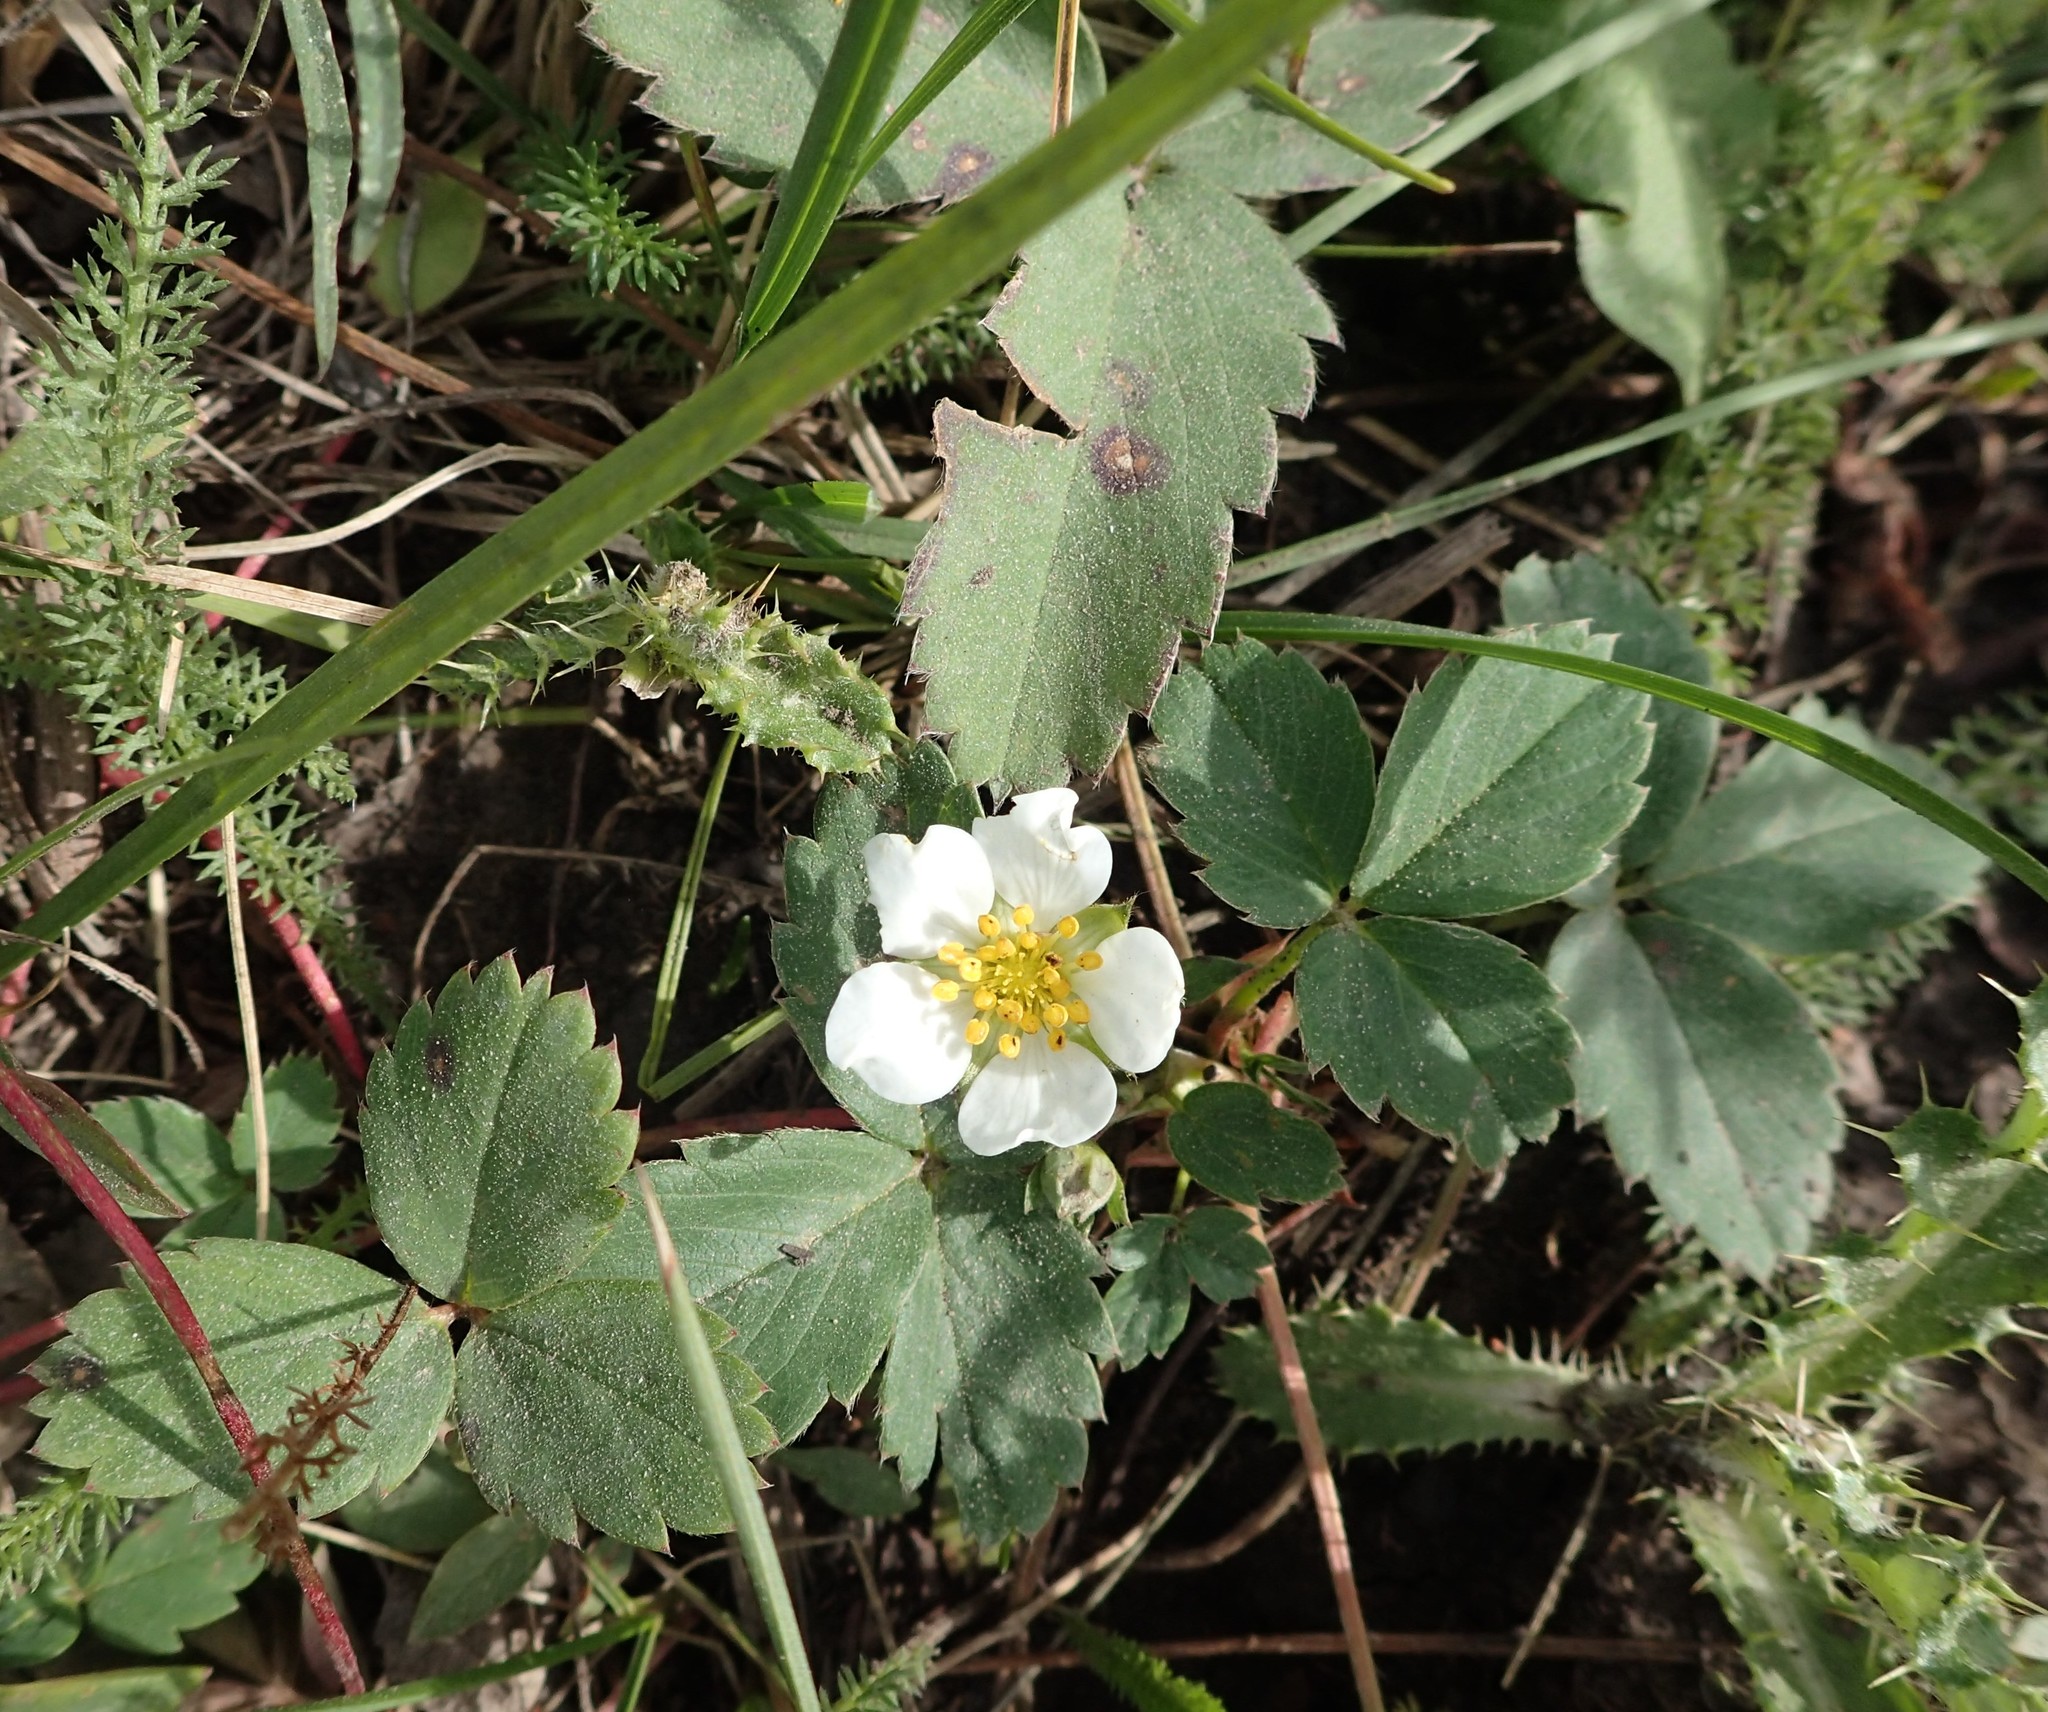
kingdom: Plantae
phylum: Tracheophyta
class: Magnoliopsida
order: Rosales
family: Rosaceae
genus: Fragaria
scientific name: Fragaria virginiana
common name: Thickleaved wild strawberry
